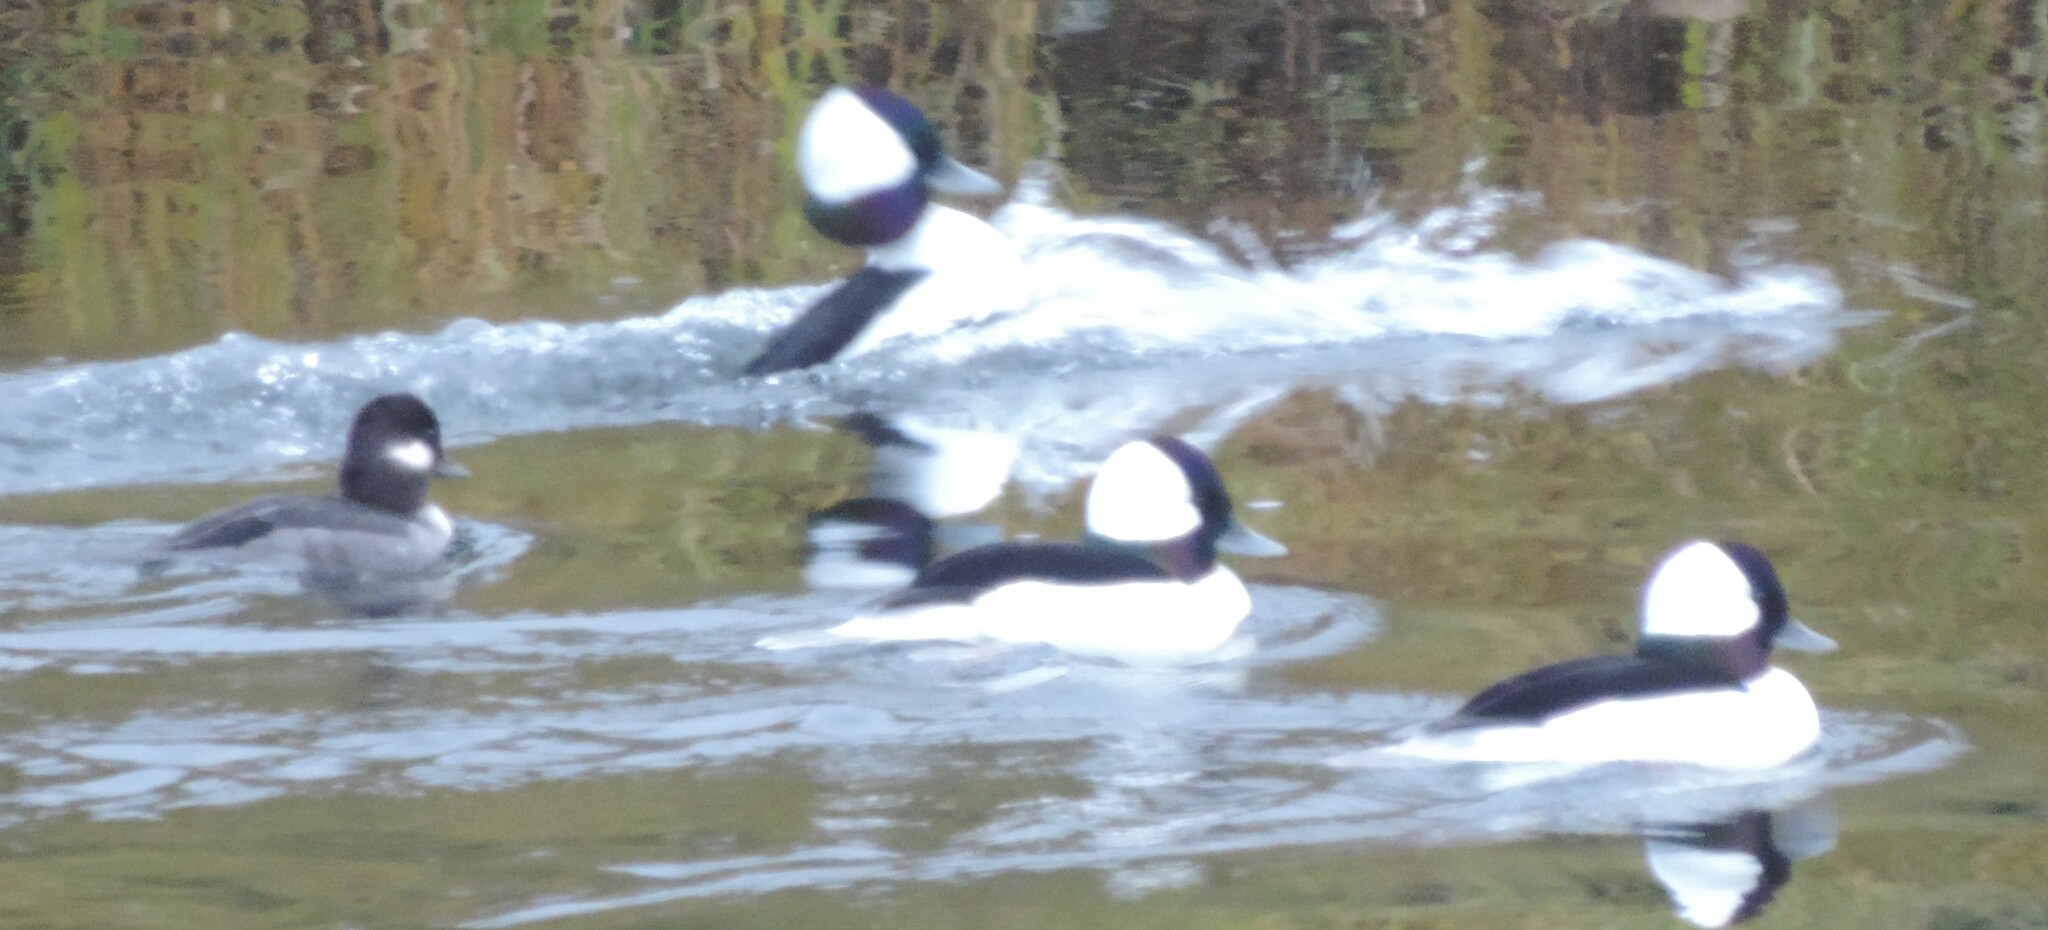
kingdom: Animalia
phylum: Chordata
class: Aves
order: Anseriformes
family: Anatidae
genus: Bucephala
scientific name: Bucephala albeola
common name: Bufflehead
